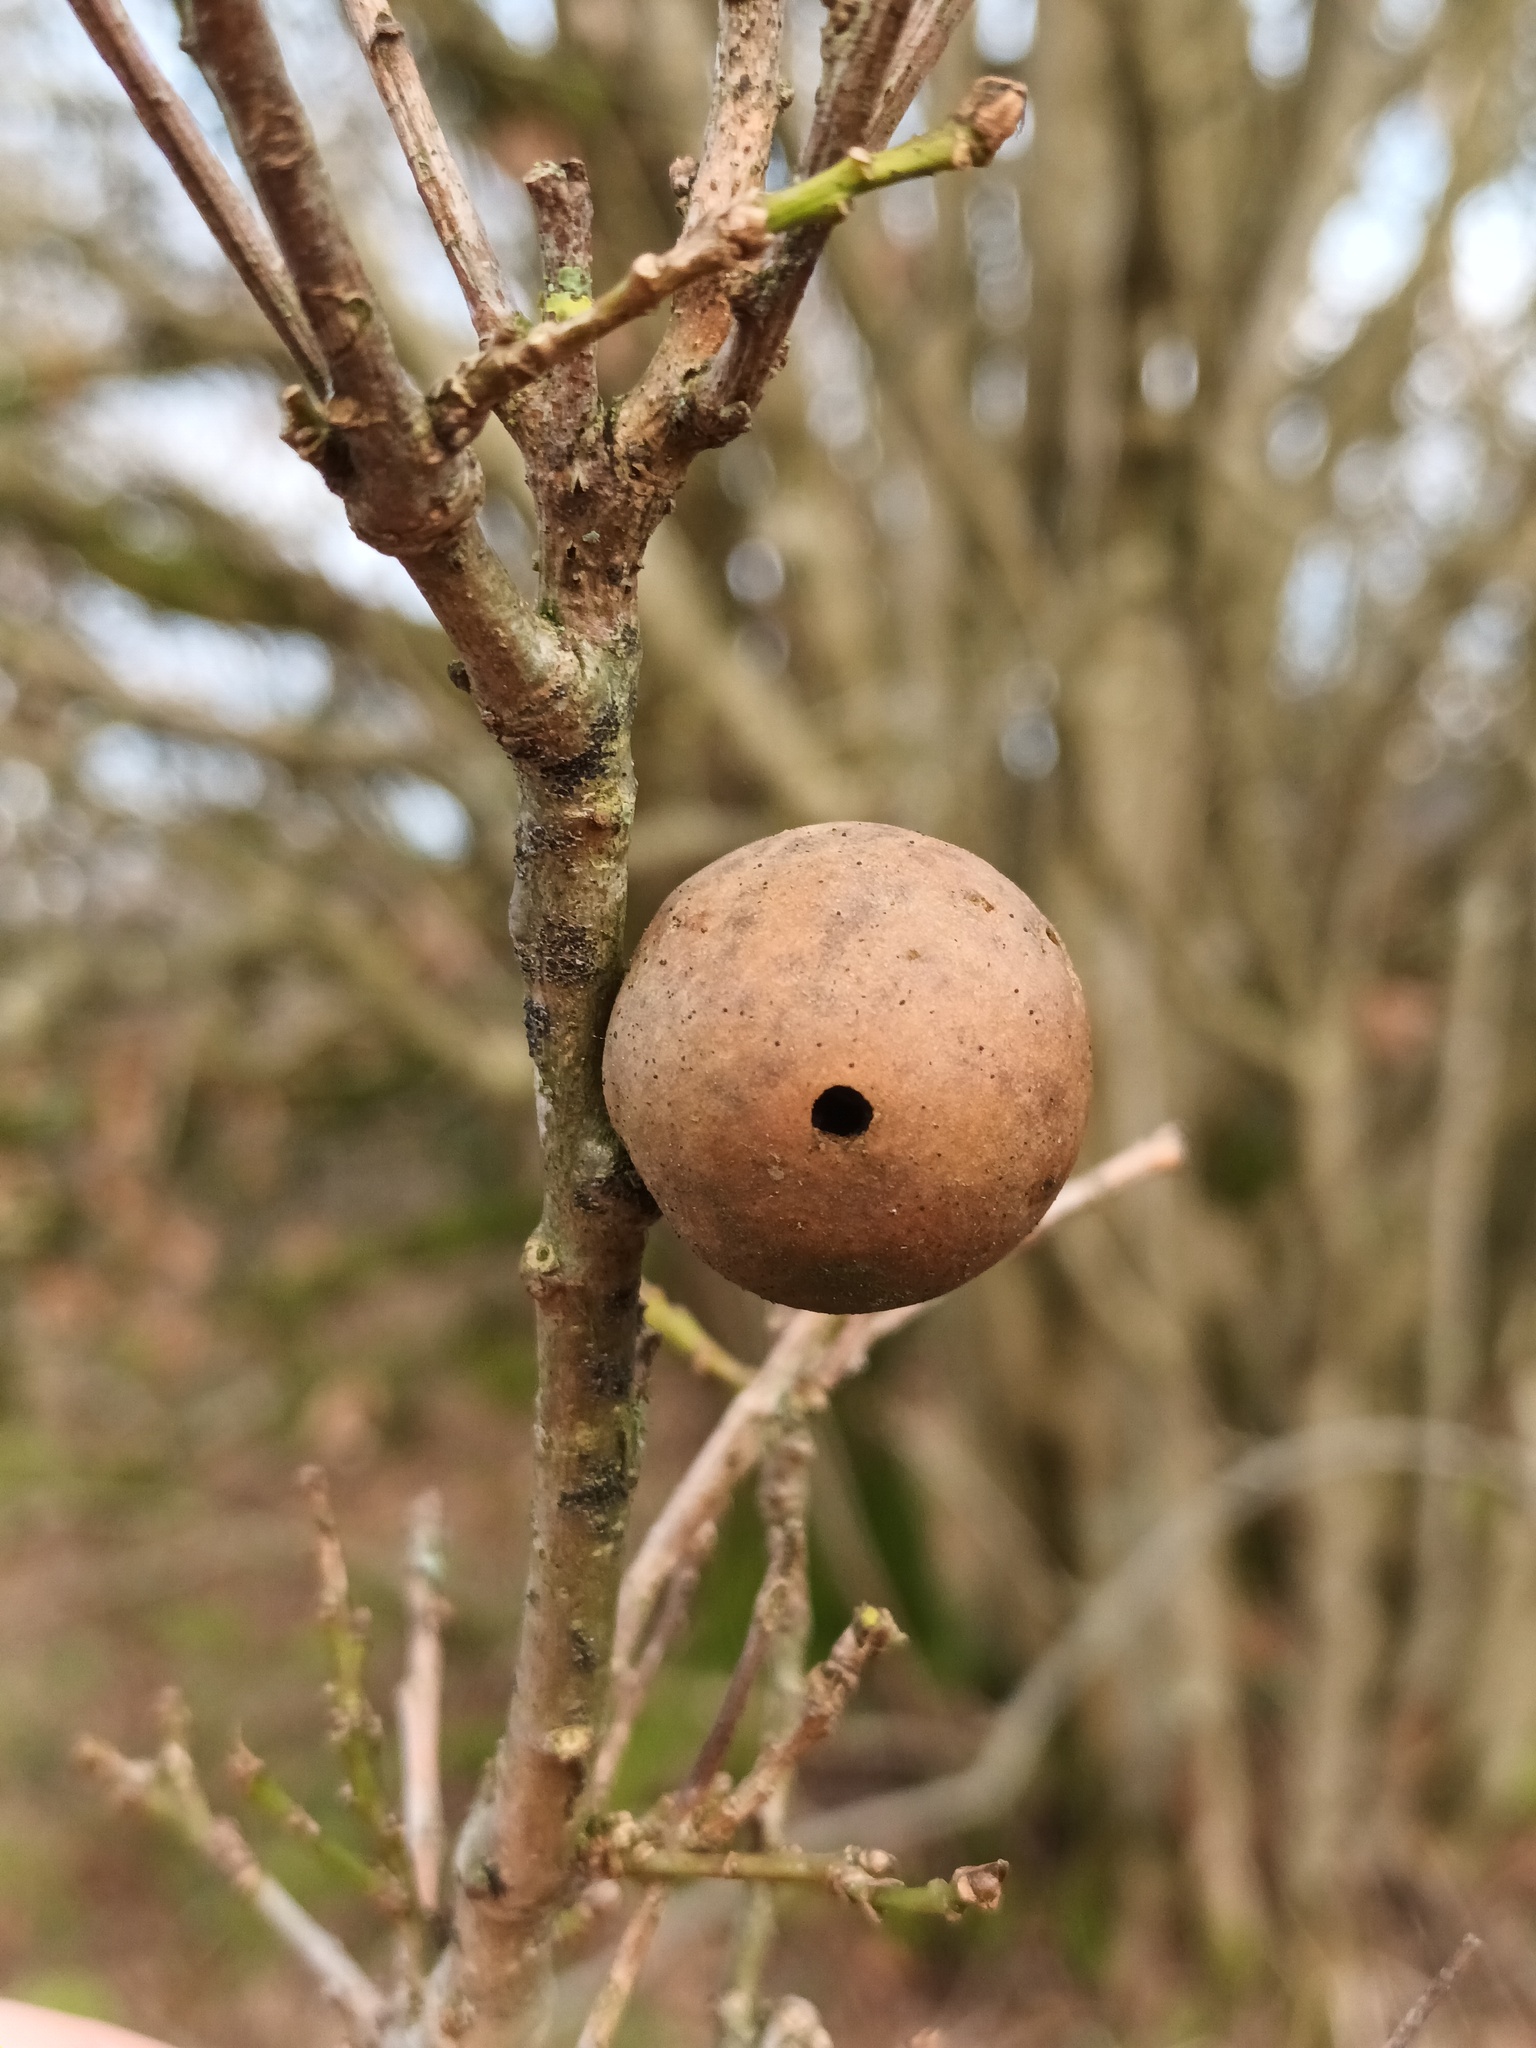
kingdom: Animalia
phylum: Arthropoda
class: Insecta
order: Hymenoptera
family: Cynipidae
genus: Andricus
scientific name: Andricus kollari
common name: Marble gall
